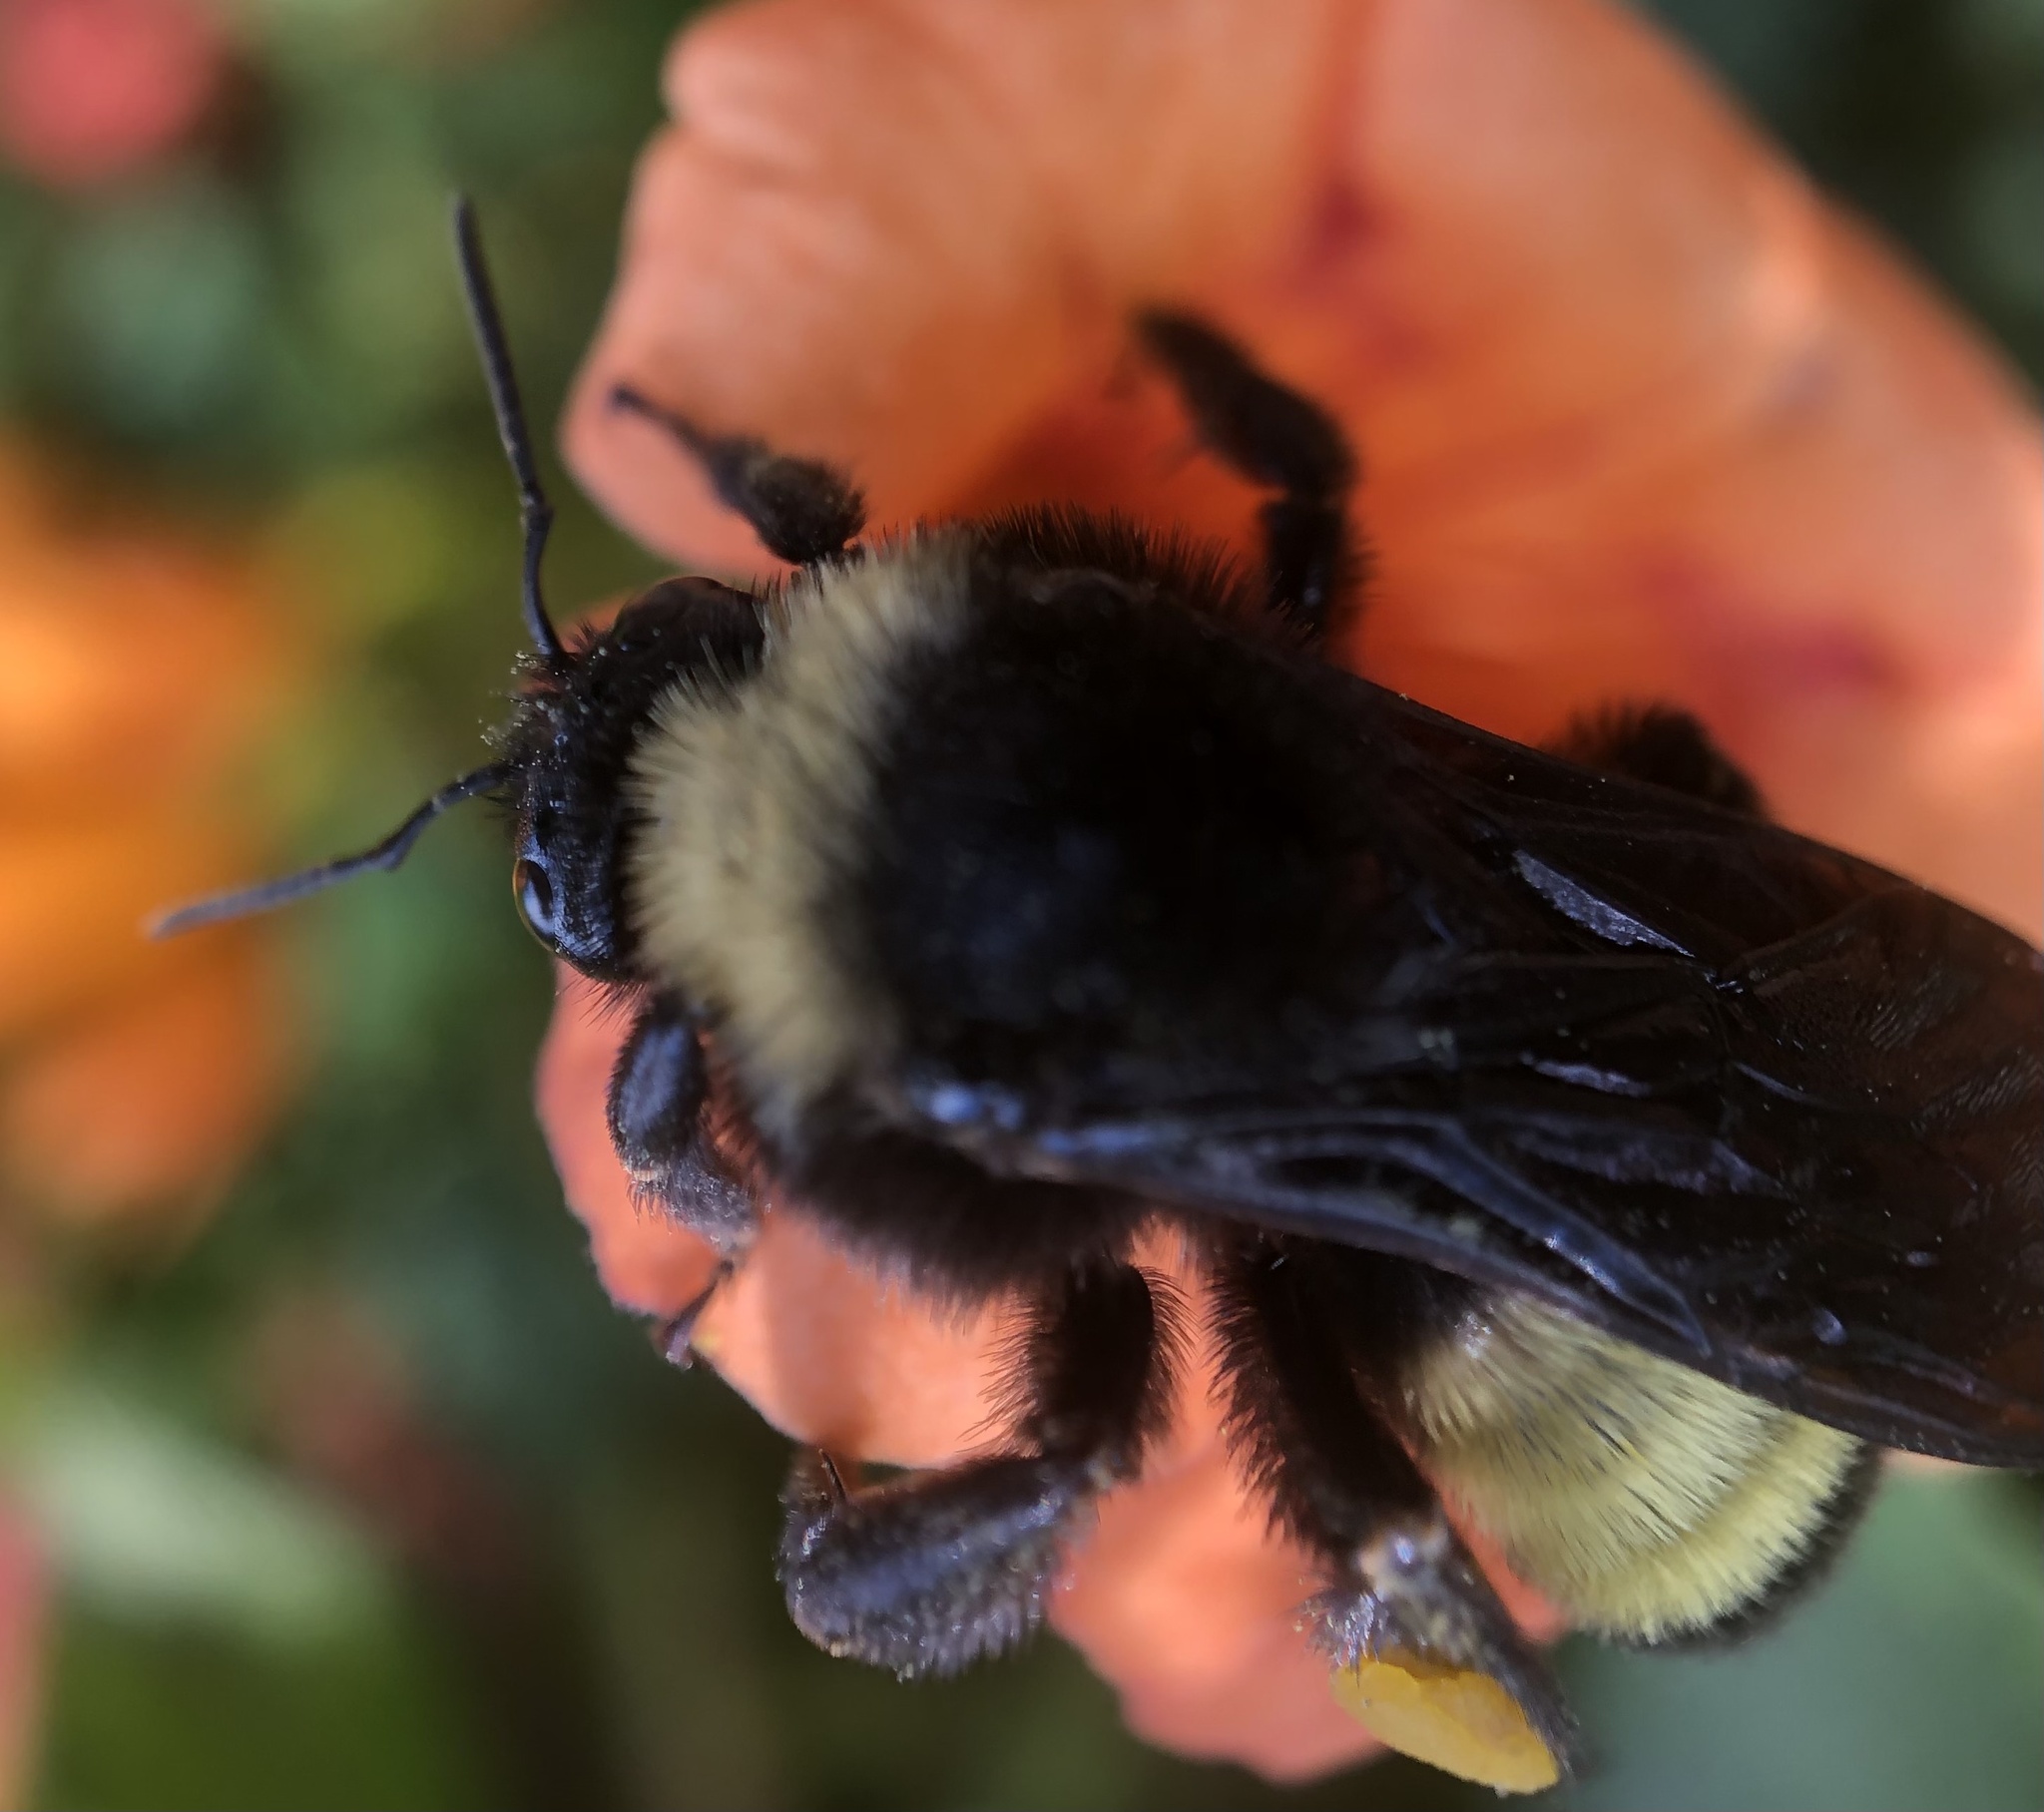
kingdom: Animalia
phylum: Arthropoda
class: Insecta
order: Hymenoptera
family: Apidae
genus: Bombus
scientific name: Bombus pensylvanicus
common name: Bumble bee
